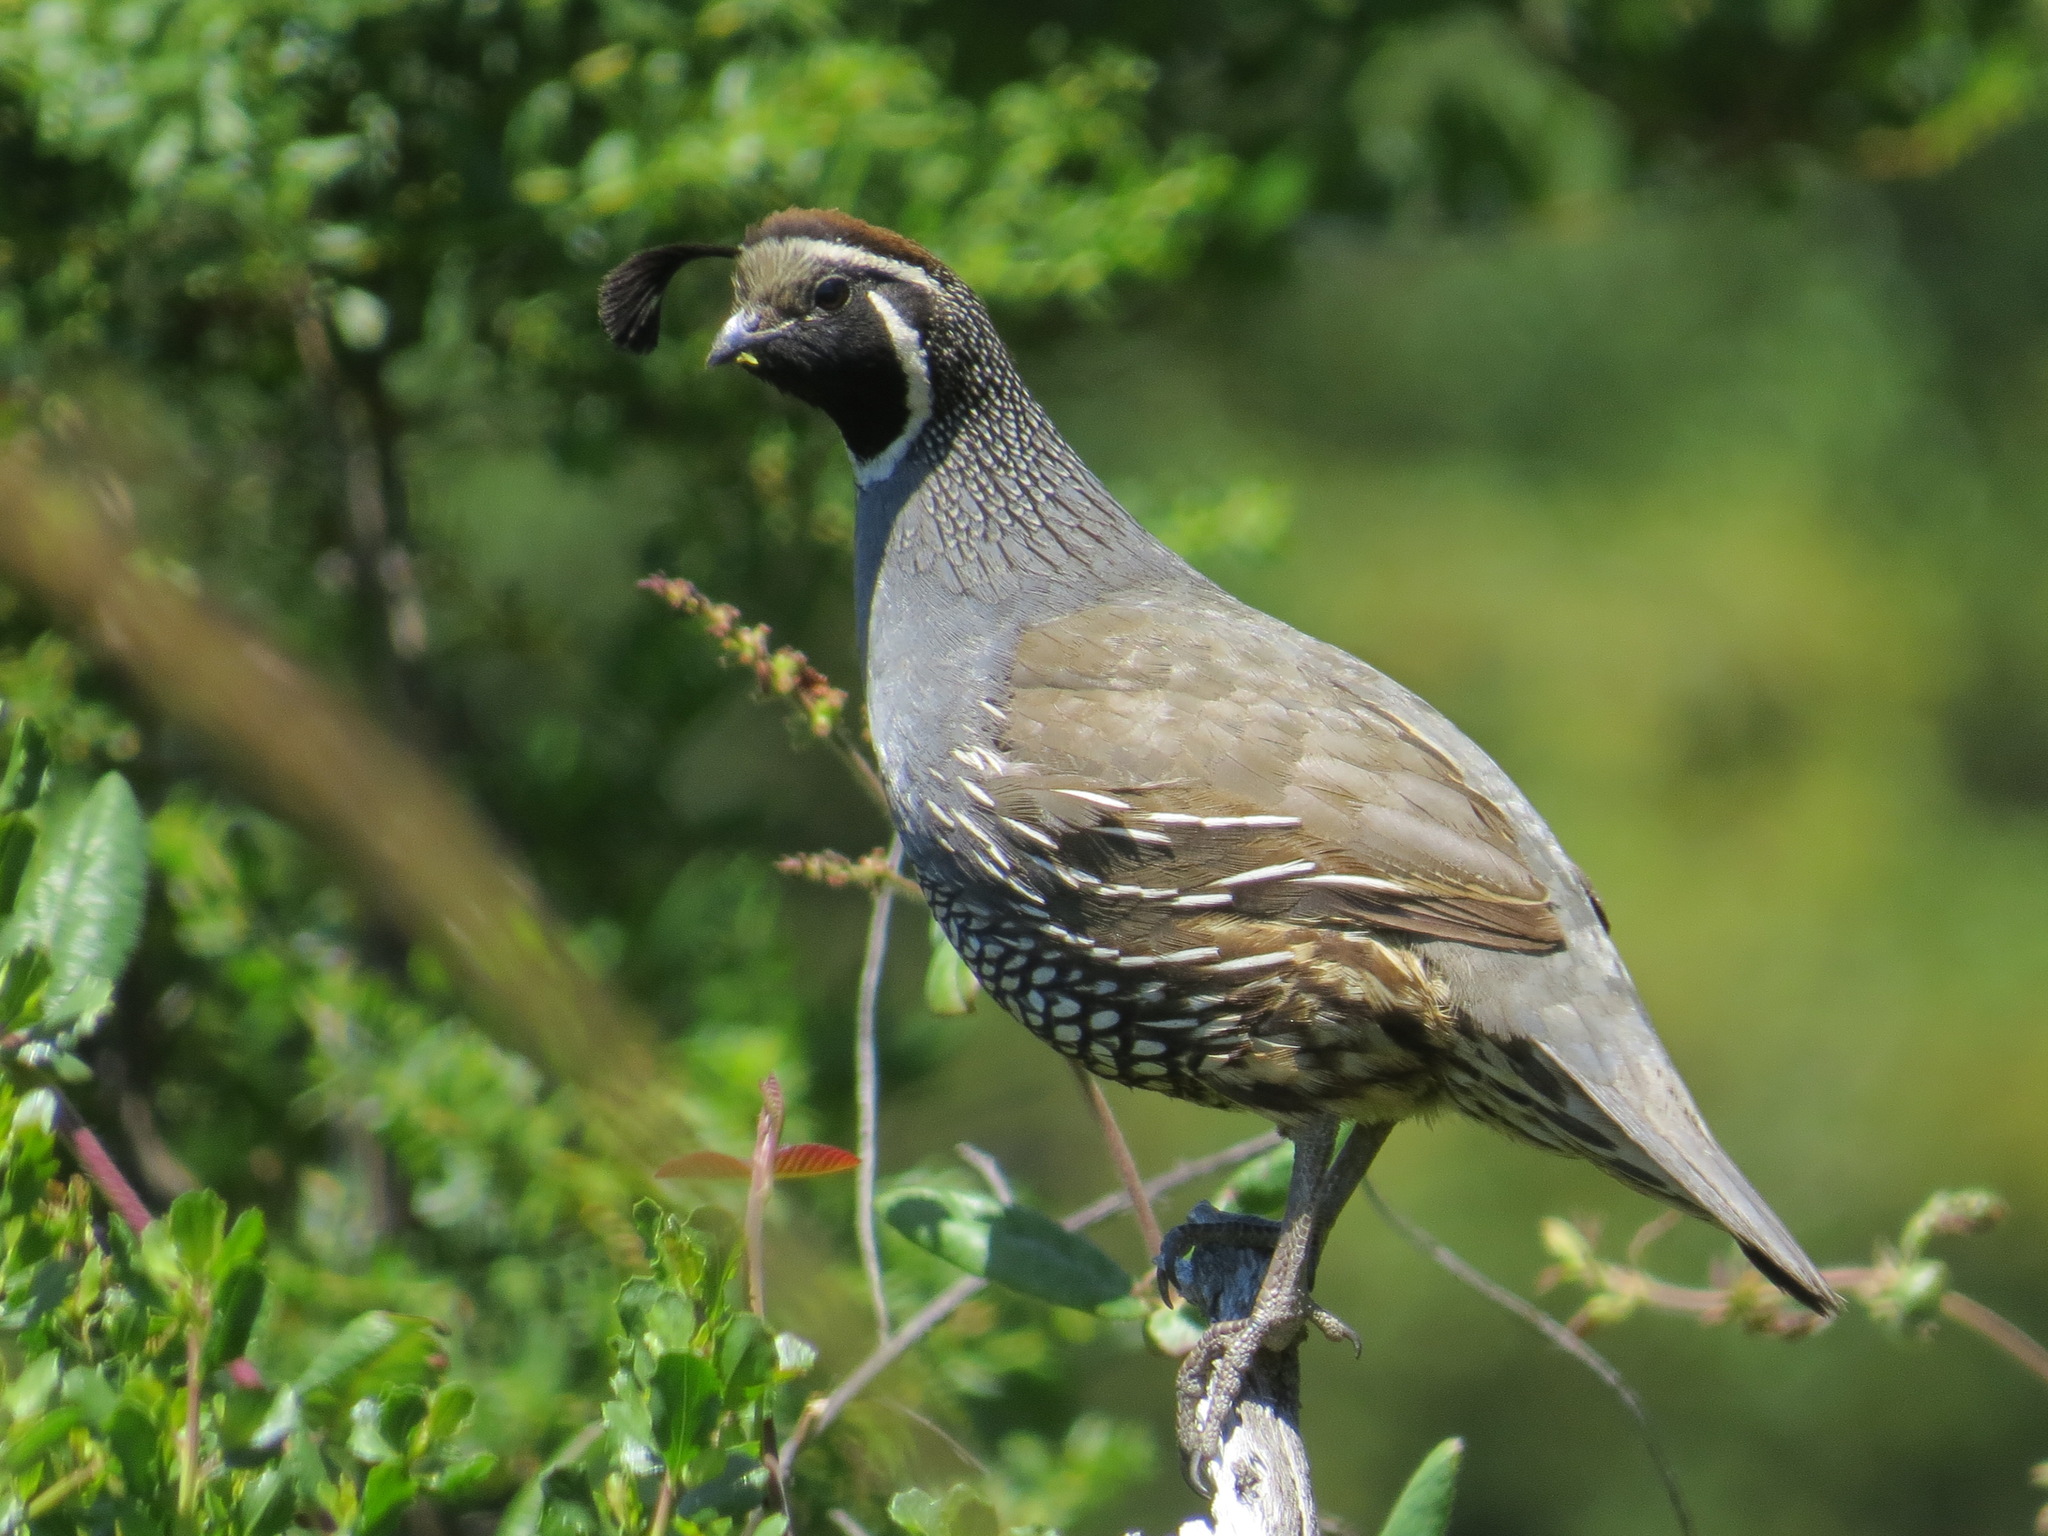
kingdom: Animalia
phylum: Chordata
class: Aves
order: Galliformes
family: Odontophoridae
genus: Callipepla
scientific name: Callipepla californica
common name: California quail
